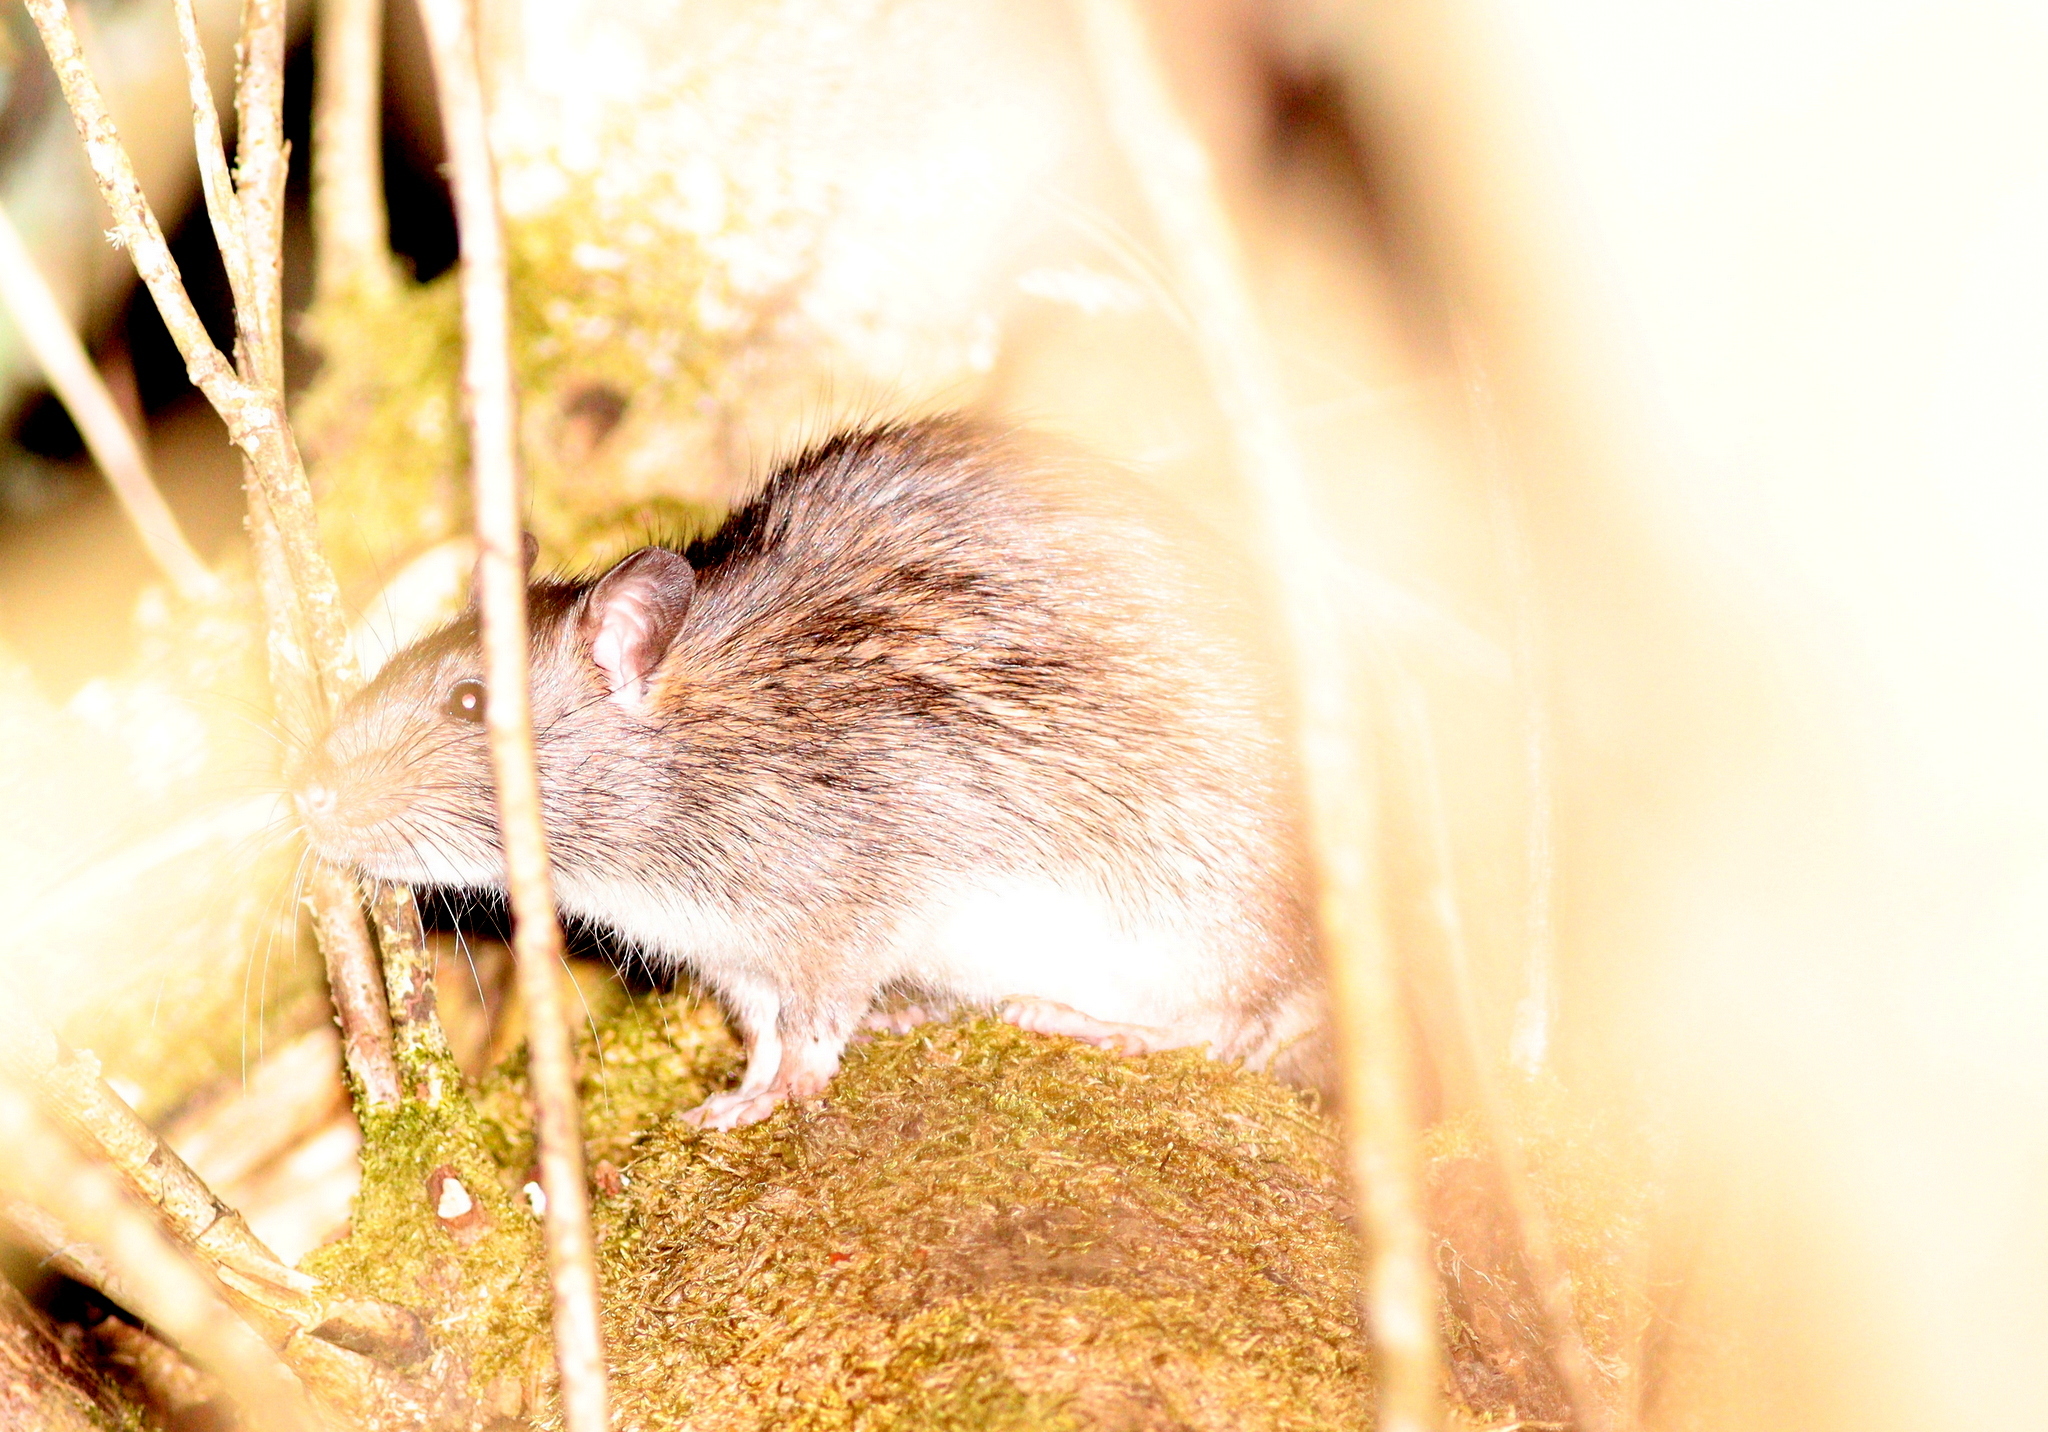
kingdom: Animalia
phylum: Chordata
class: Mammalia
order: Rodentia
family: Muridae
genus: Rattus
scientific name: Rattus norvegicus
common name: Brown rat
